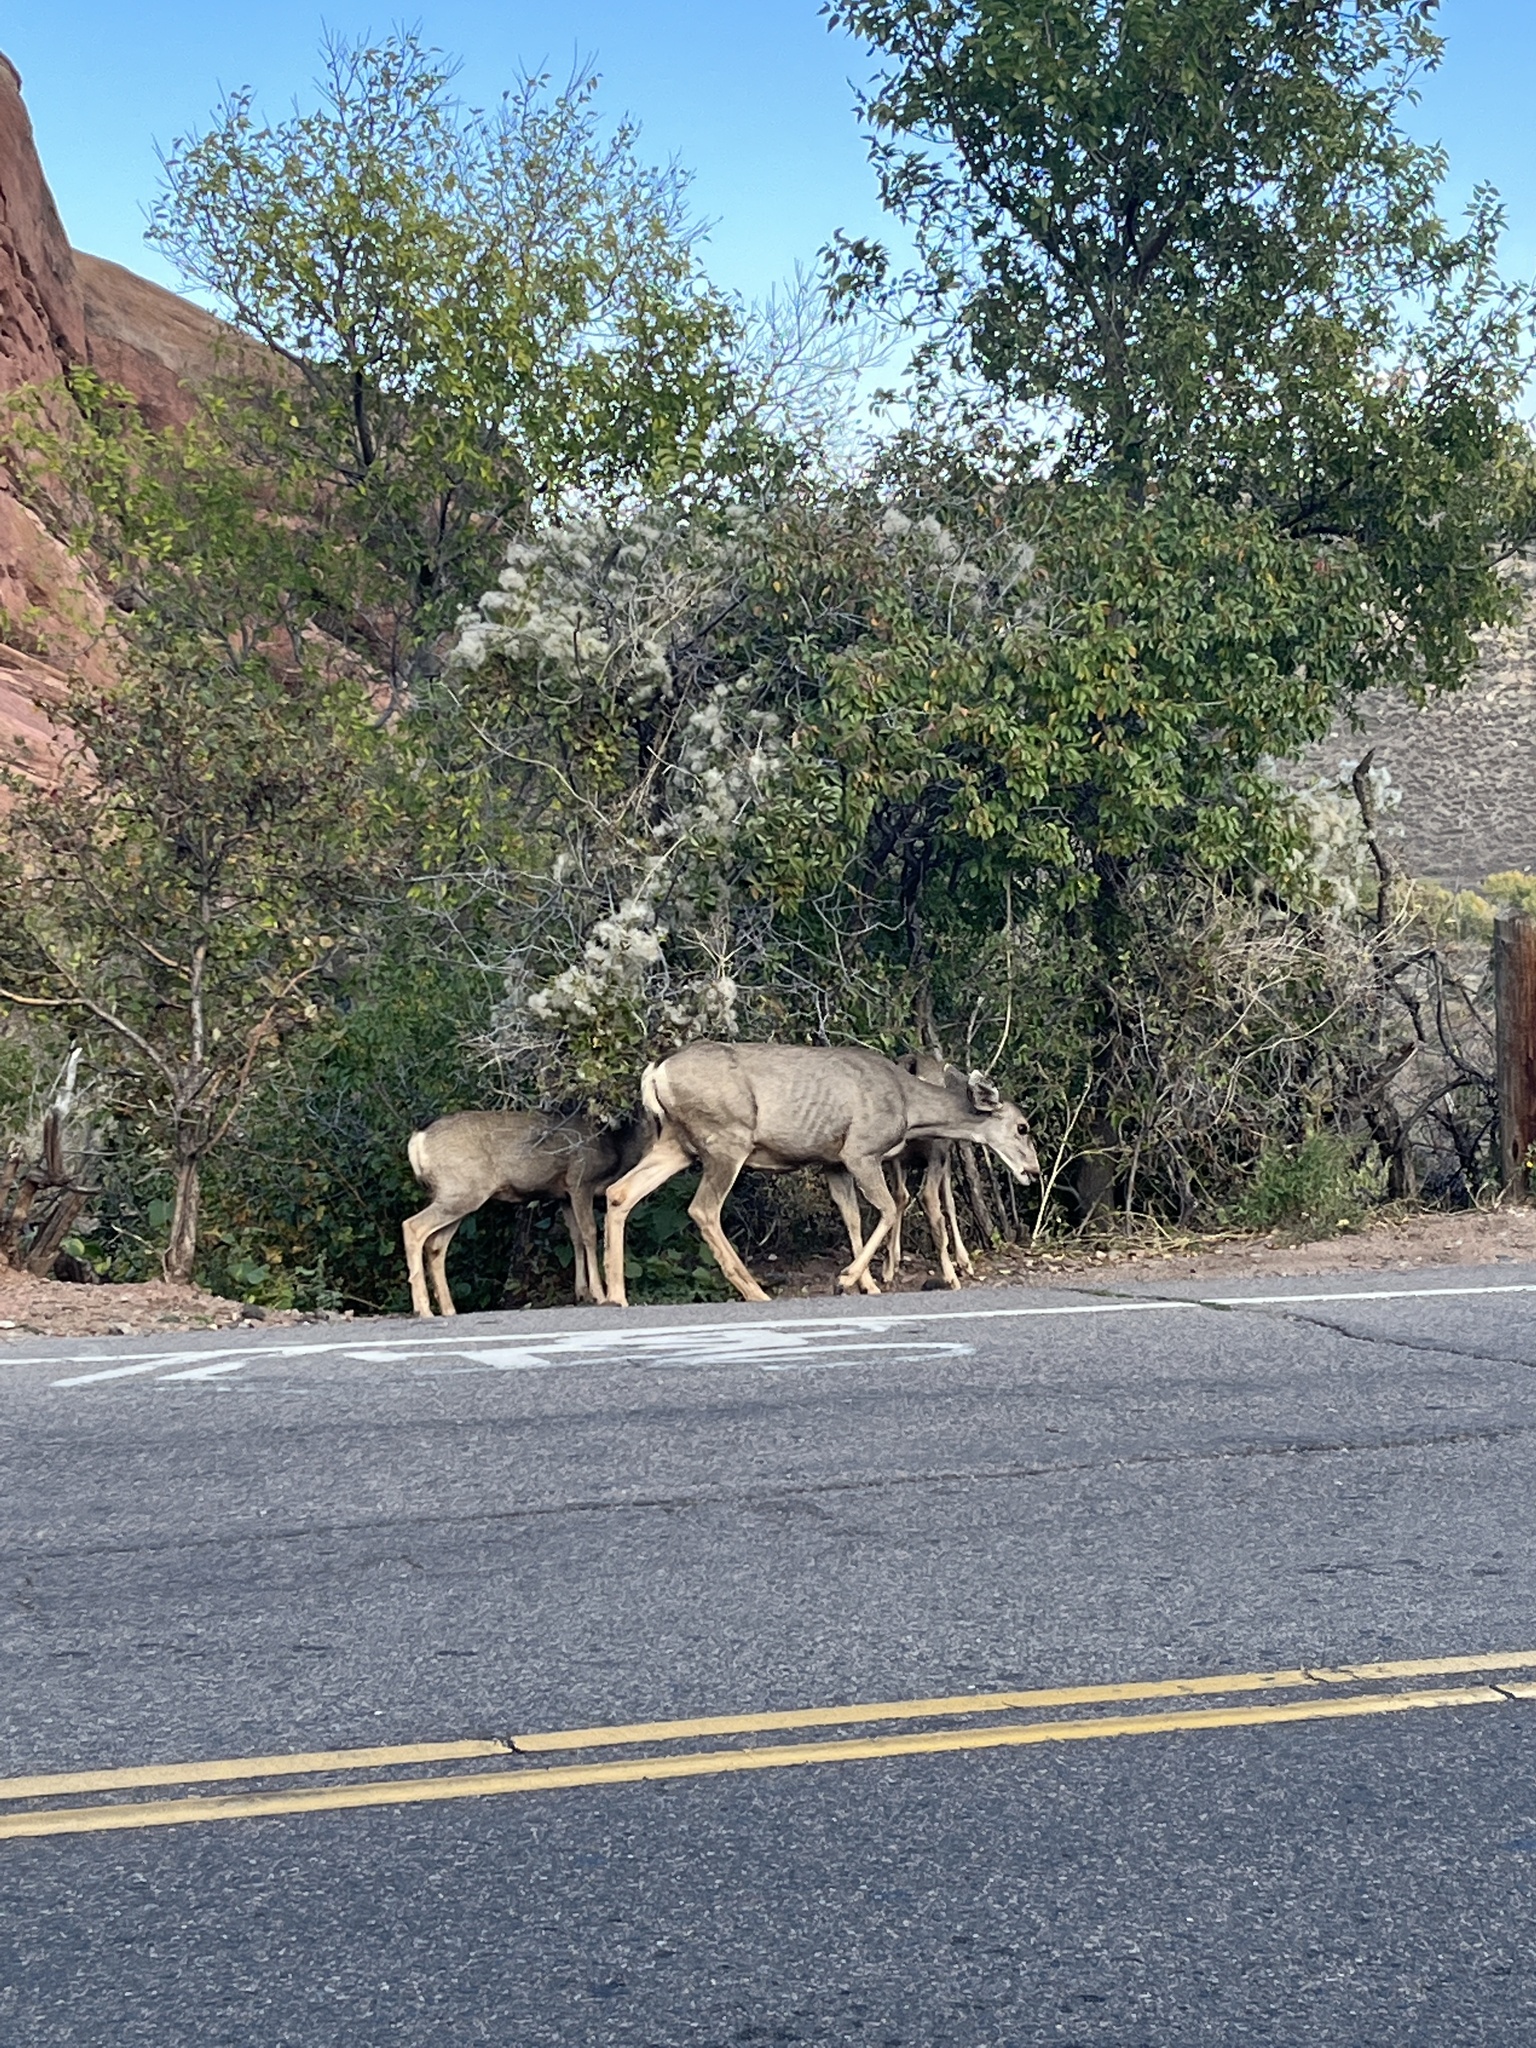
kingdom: Animalia
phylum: Chordata
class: Mammalia
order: Artiodactyla
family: Cervidae
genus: Odocoileus
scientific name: Odocoileus hemionus
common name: Mule deer
